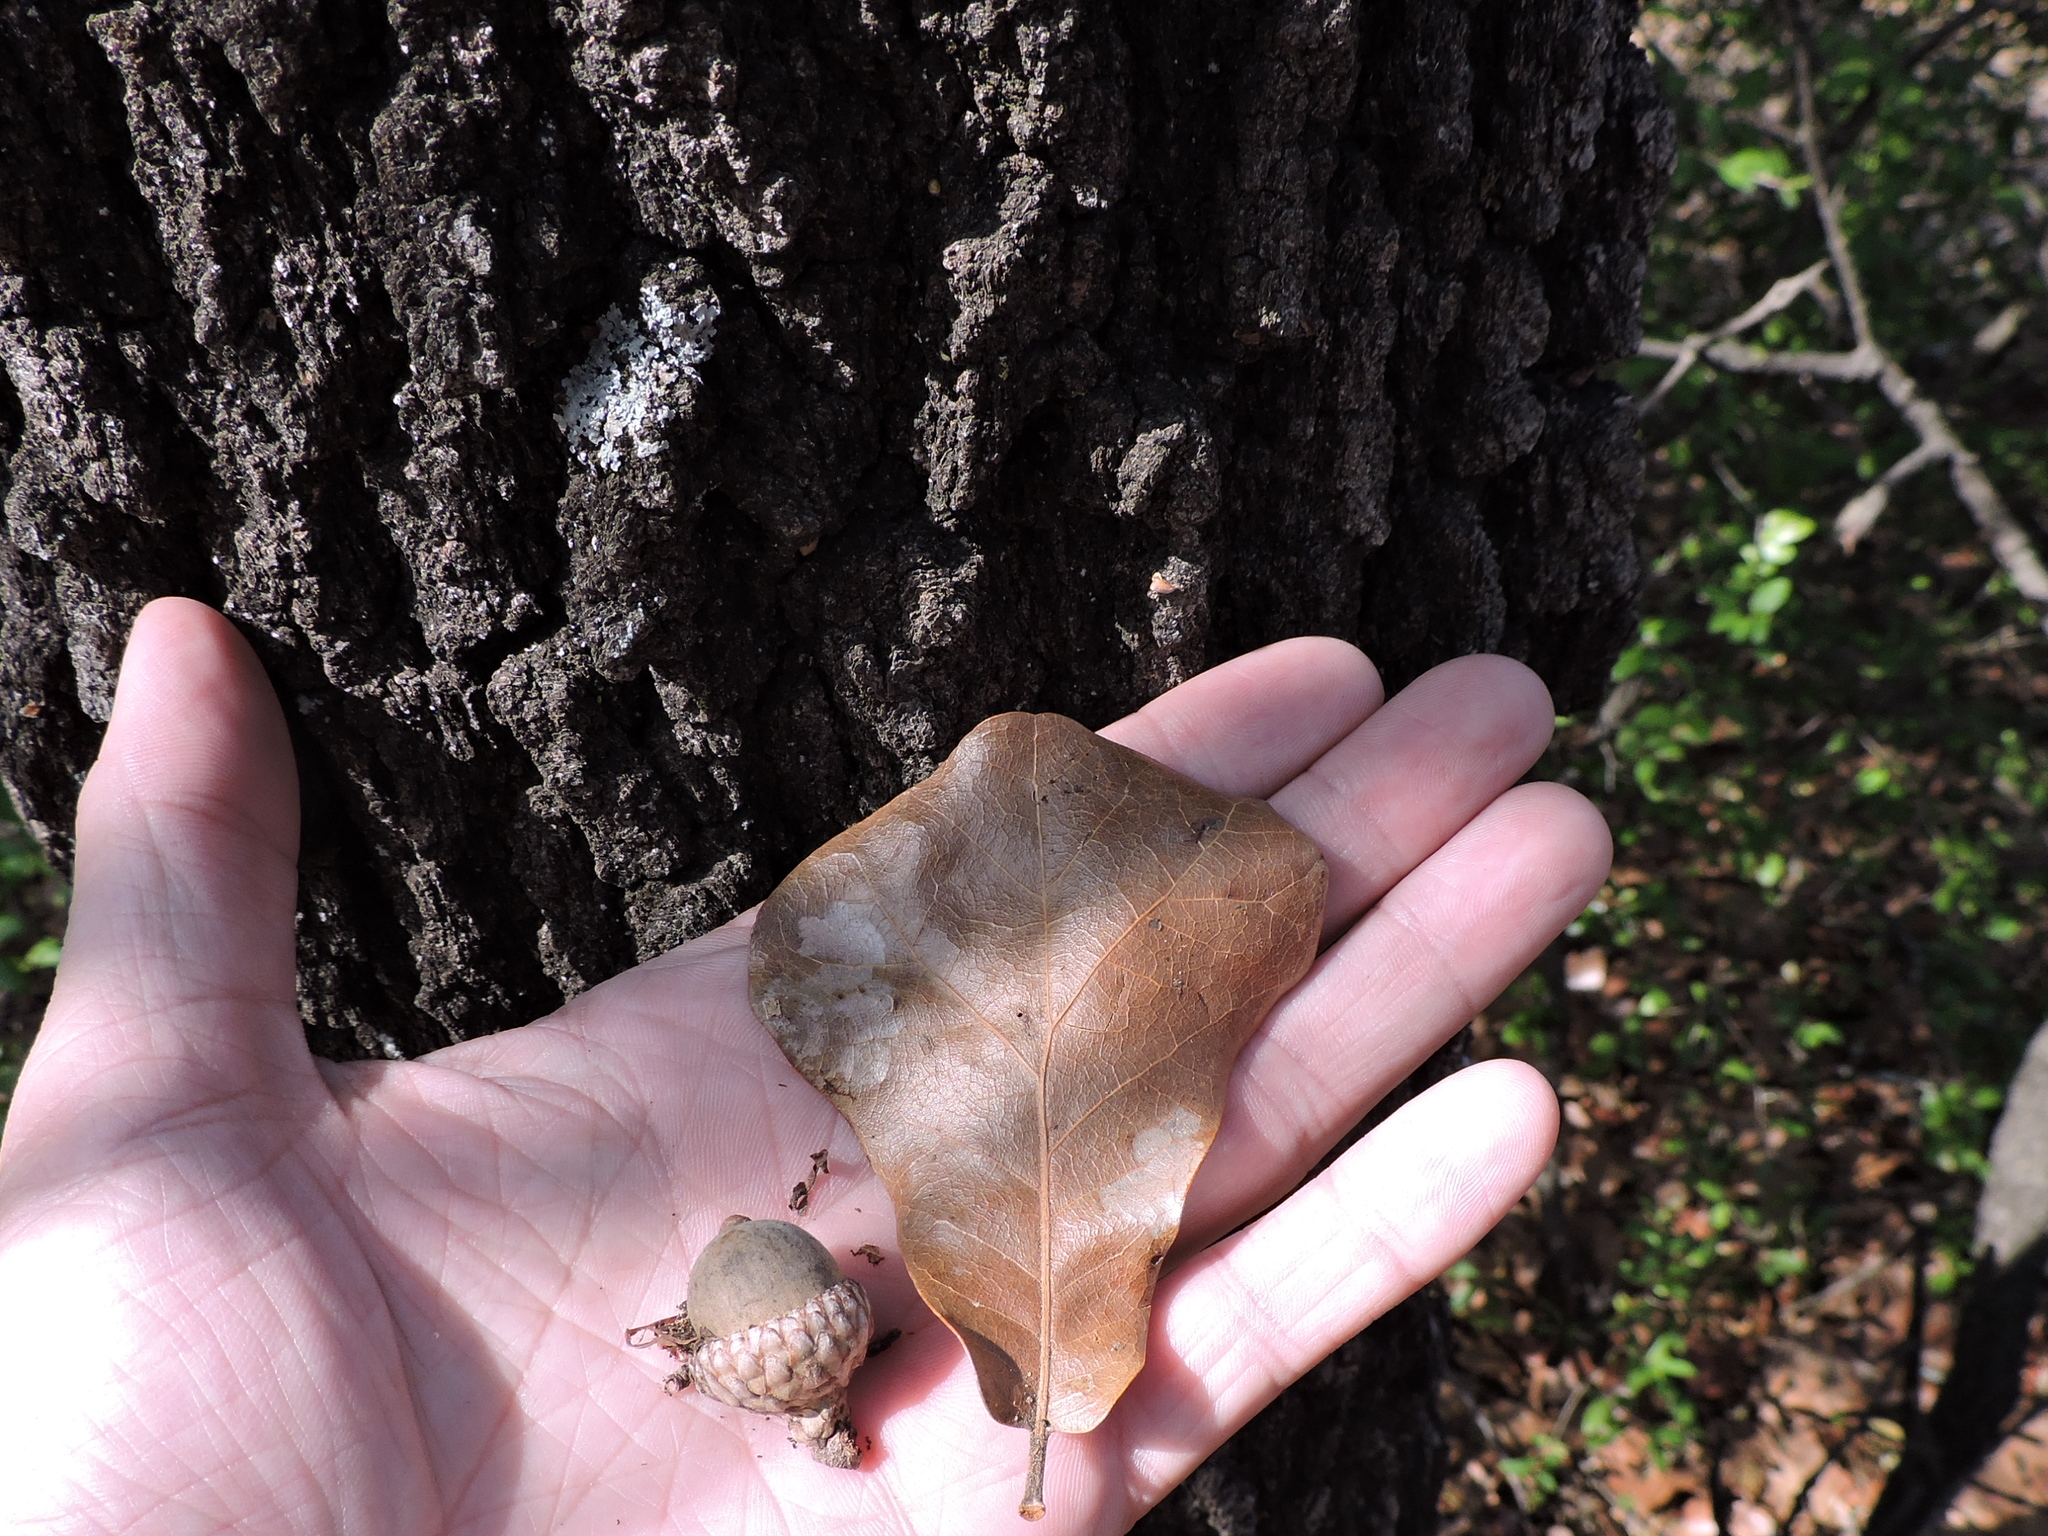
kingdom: Plantae
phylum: Tracheophyta
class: Magnoliopsida
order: Fagales
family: Fagaceae
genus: Quercus
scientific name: Quercus marilandica
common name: Blackjack oak
